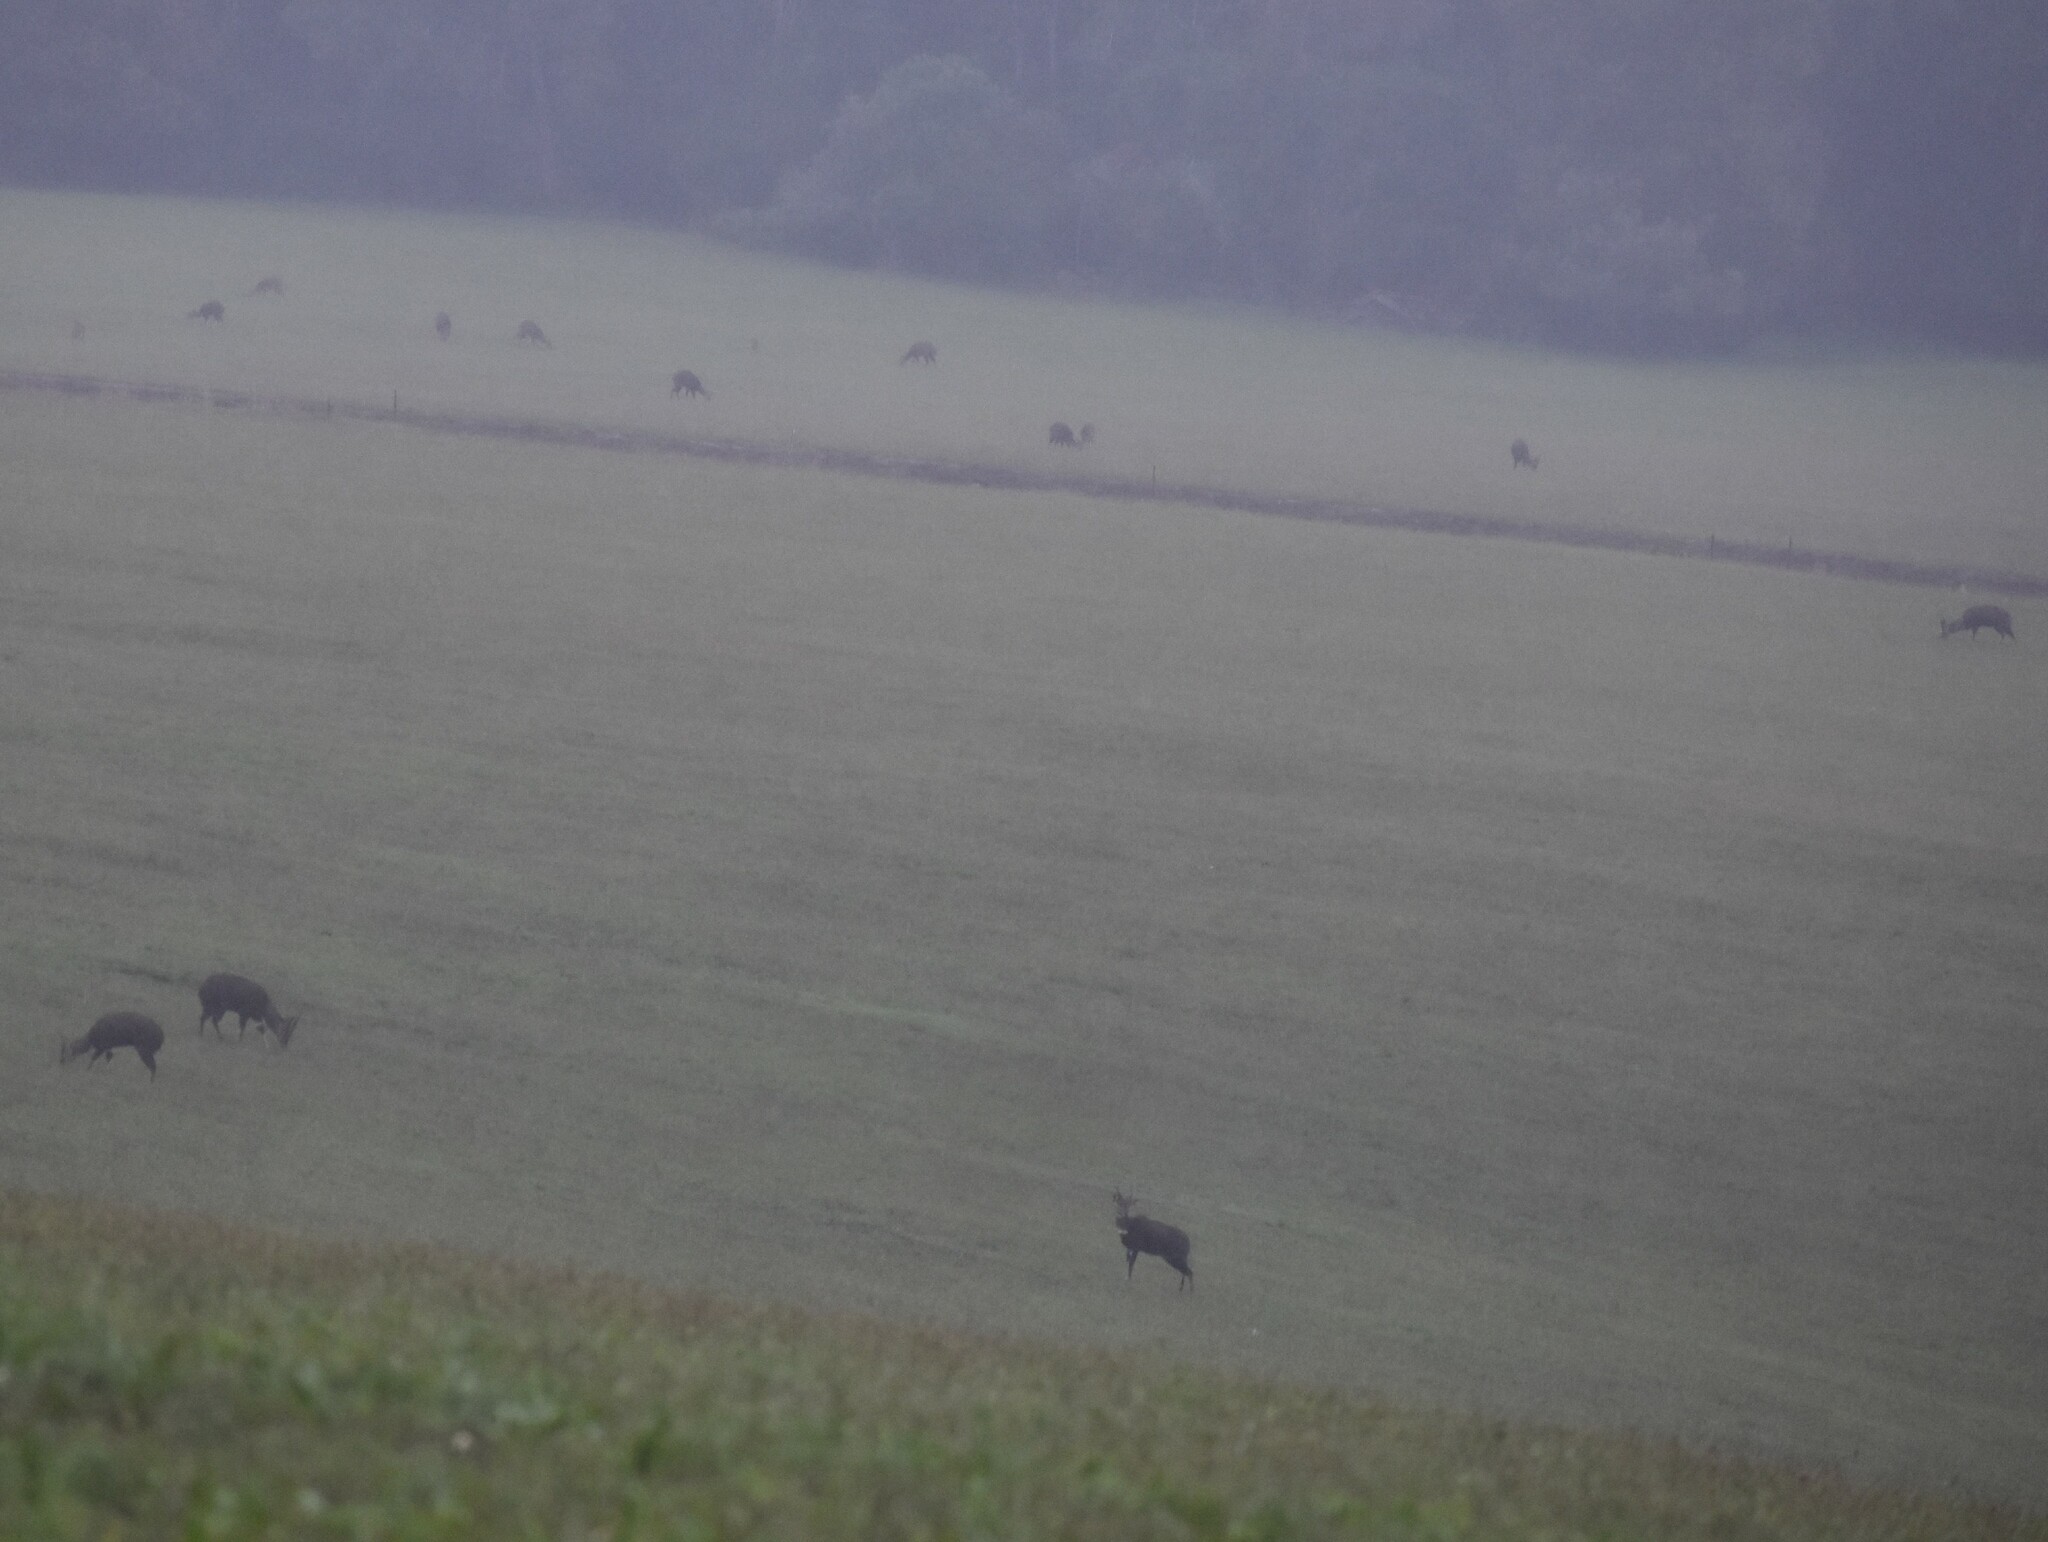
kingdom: Animalia
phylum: Chordata
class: Mammalia
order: Artiodactyla
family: Bovidae
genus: Tragelaphus
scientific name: Tragelaphus scriptus
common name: Bushbuck
